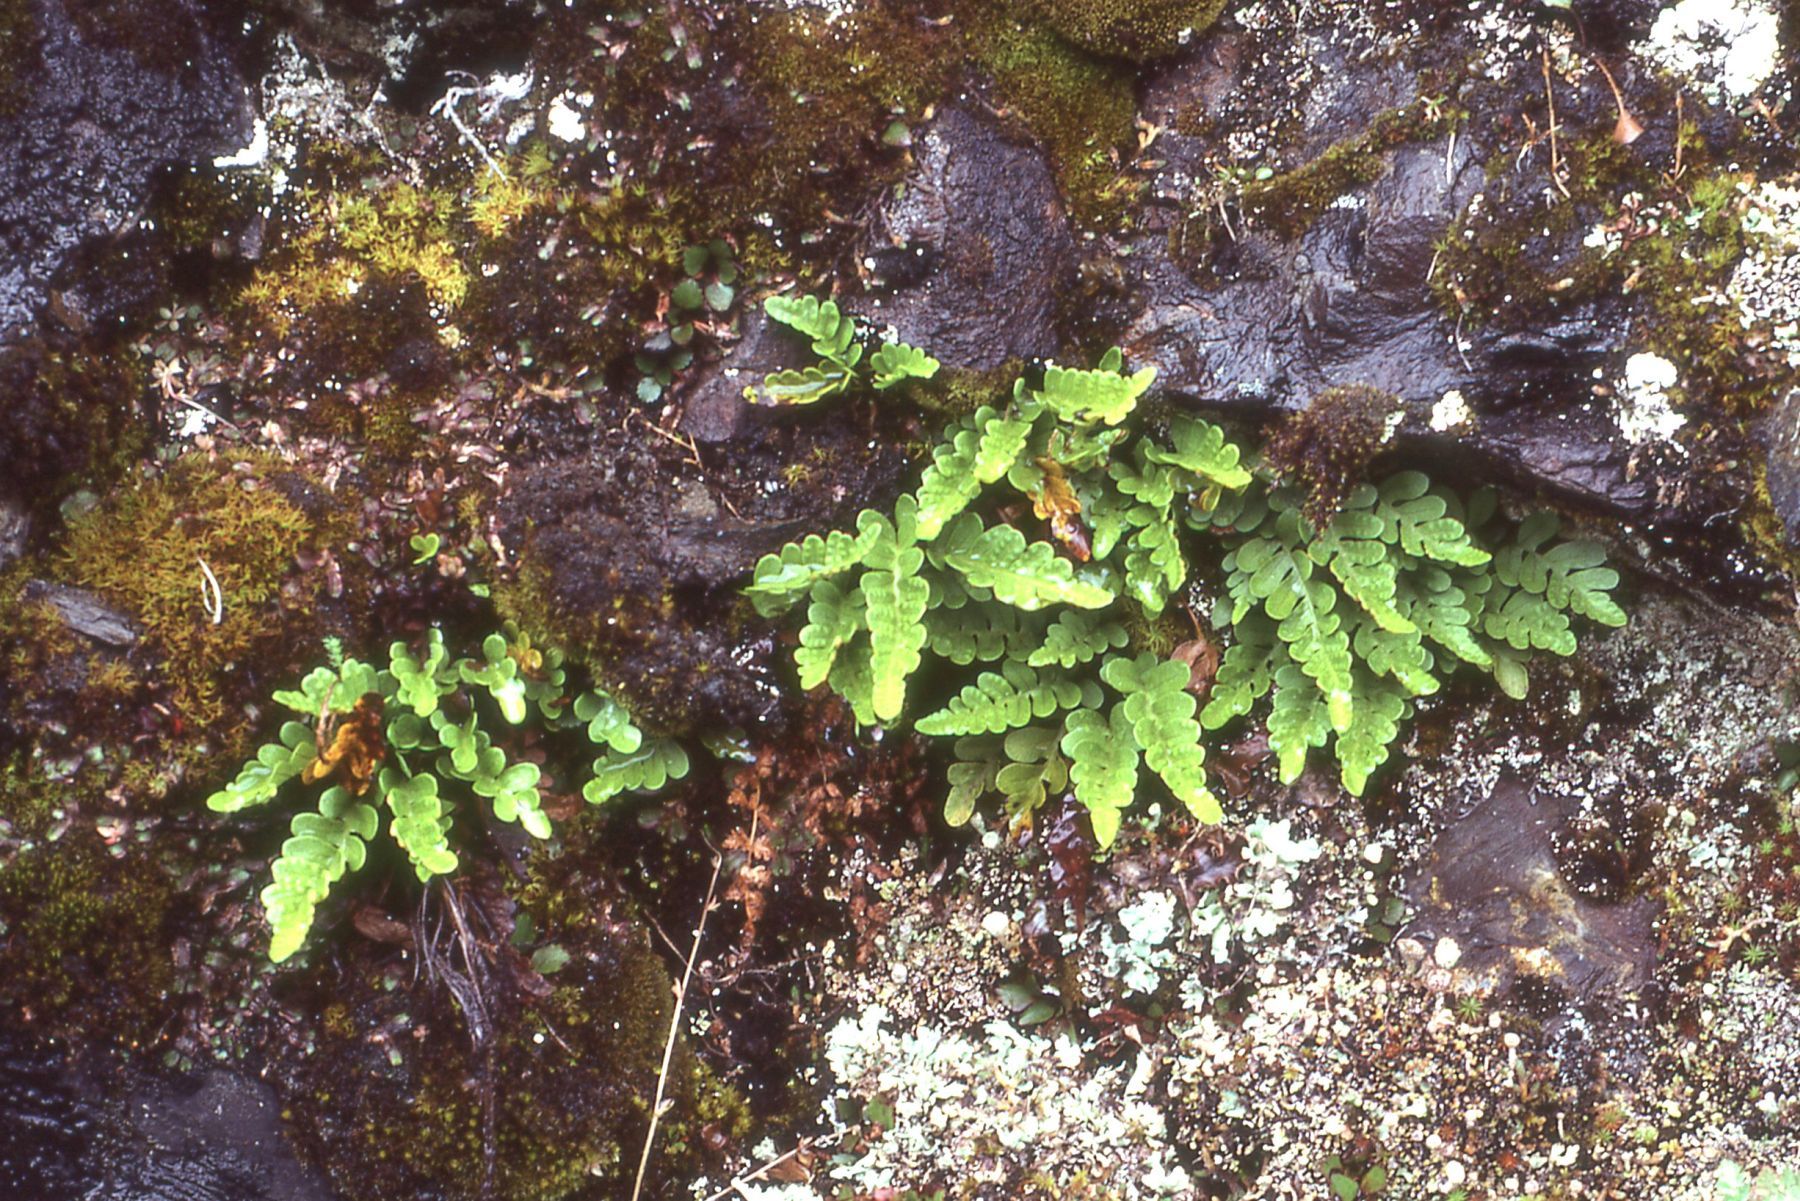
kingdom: Plantae
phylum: Tracheophyta
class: Polypodiopsida
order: Polypodiales
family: Polypodiaceae
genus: Polypodium
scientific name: Polypodium amorphum
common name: Pacific polypody
